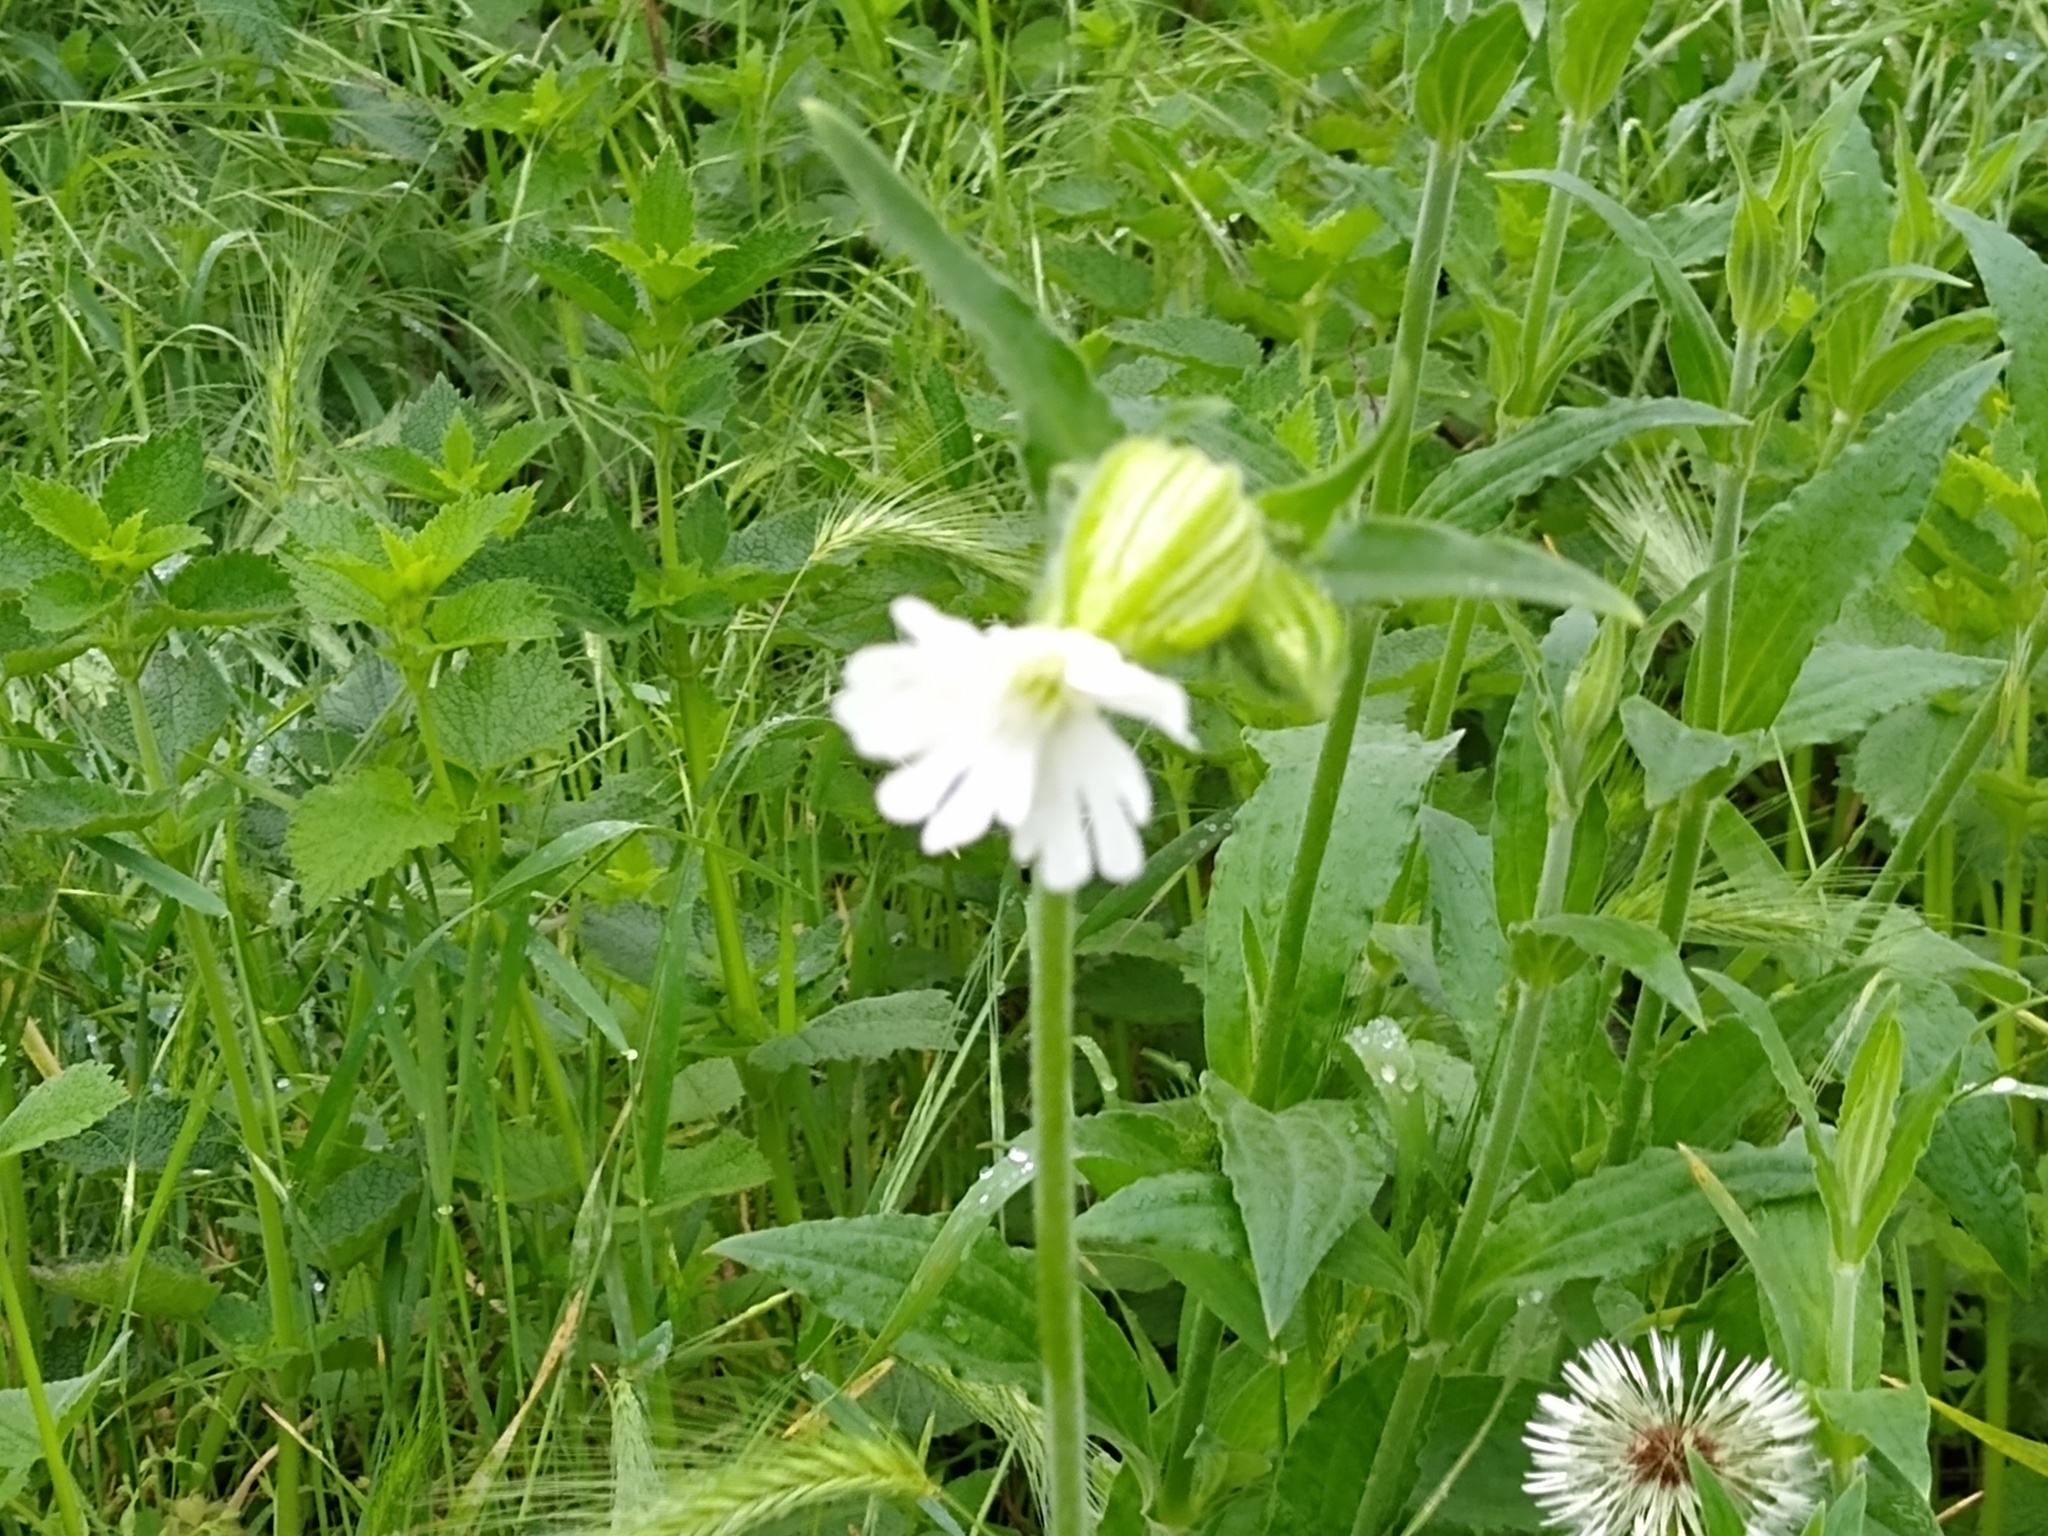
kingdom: Plantae
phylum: Tracheophyta
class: Magnoliopsida
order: Caryophyllales
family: Caryophyllaceae
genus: Silene
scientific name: Silene latifolia
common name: White campion
